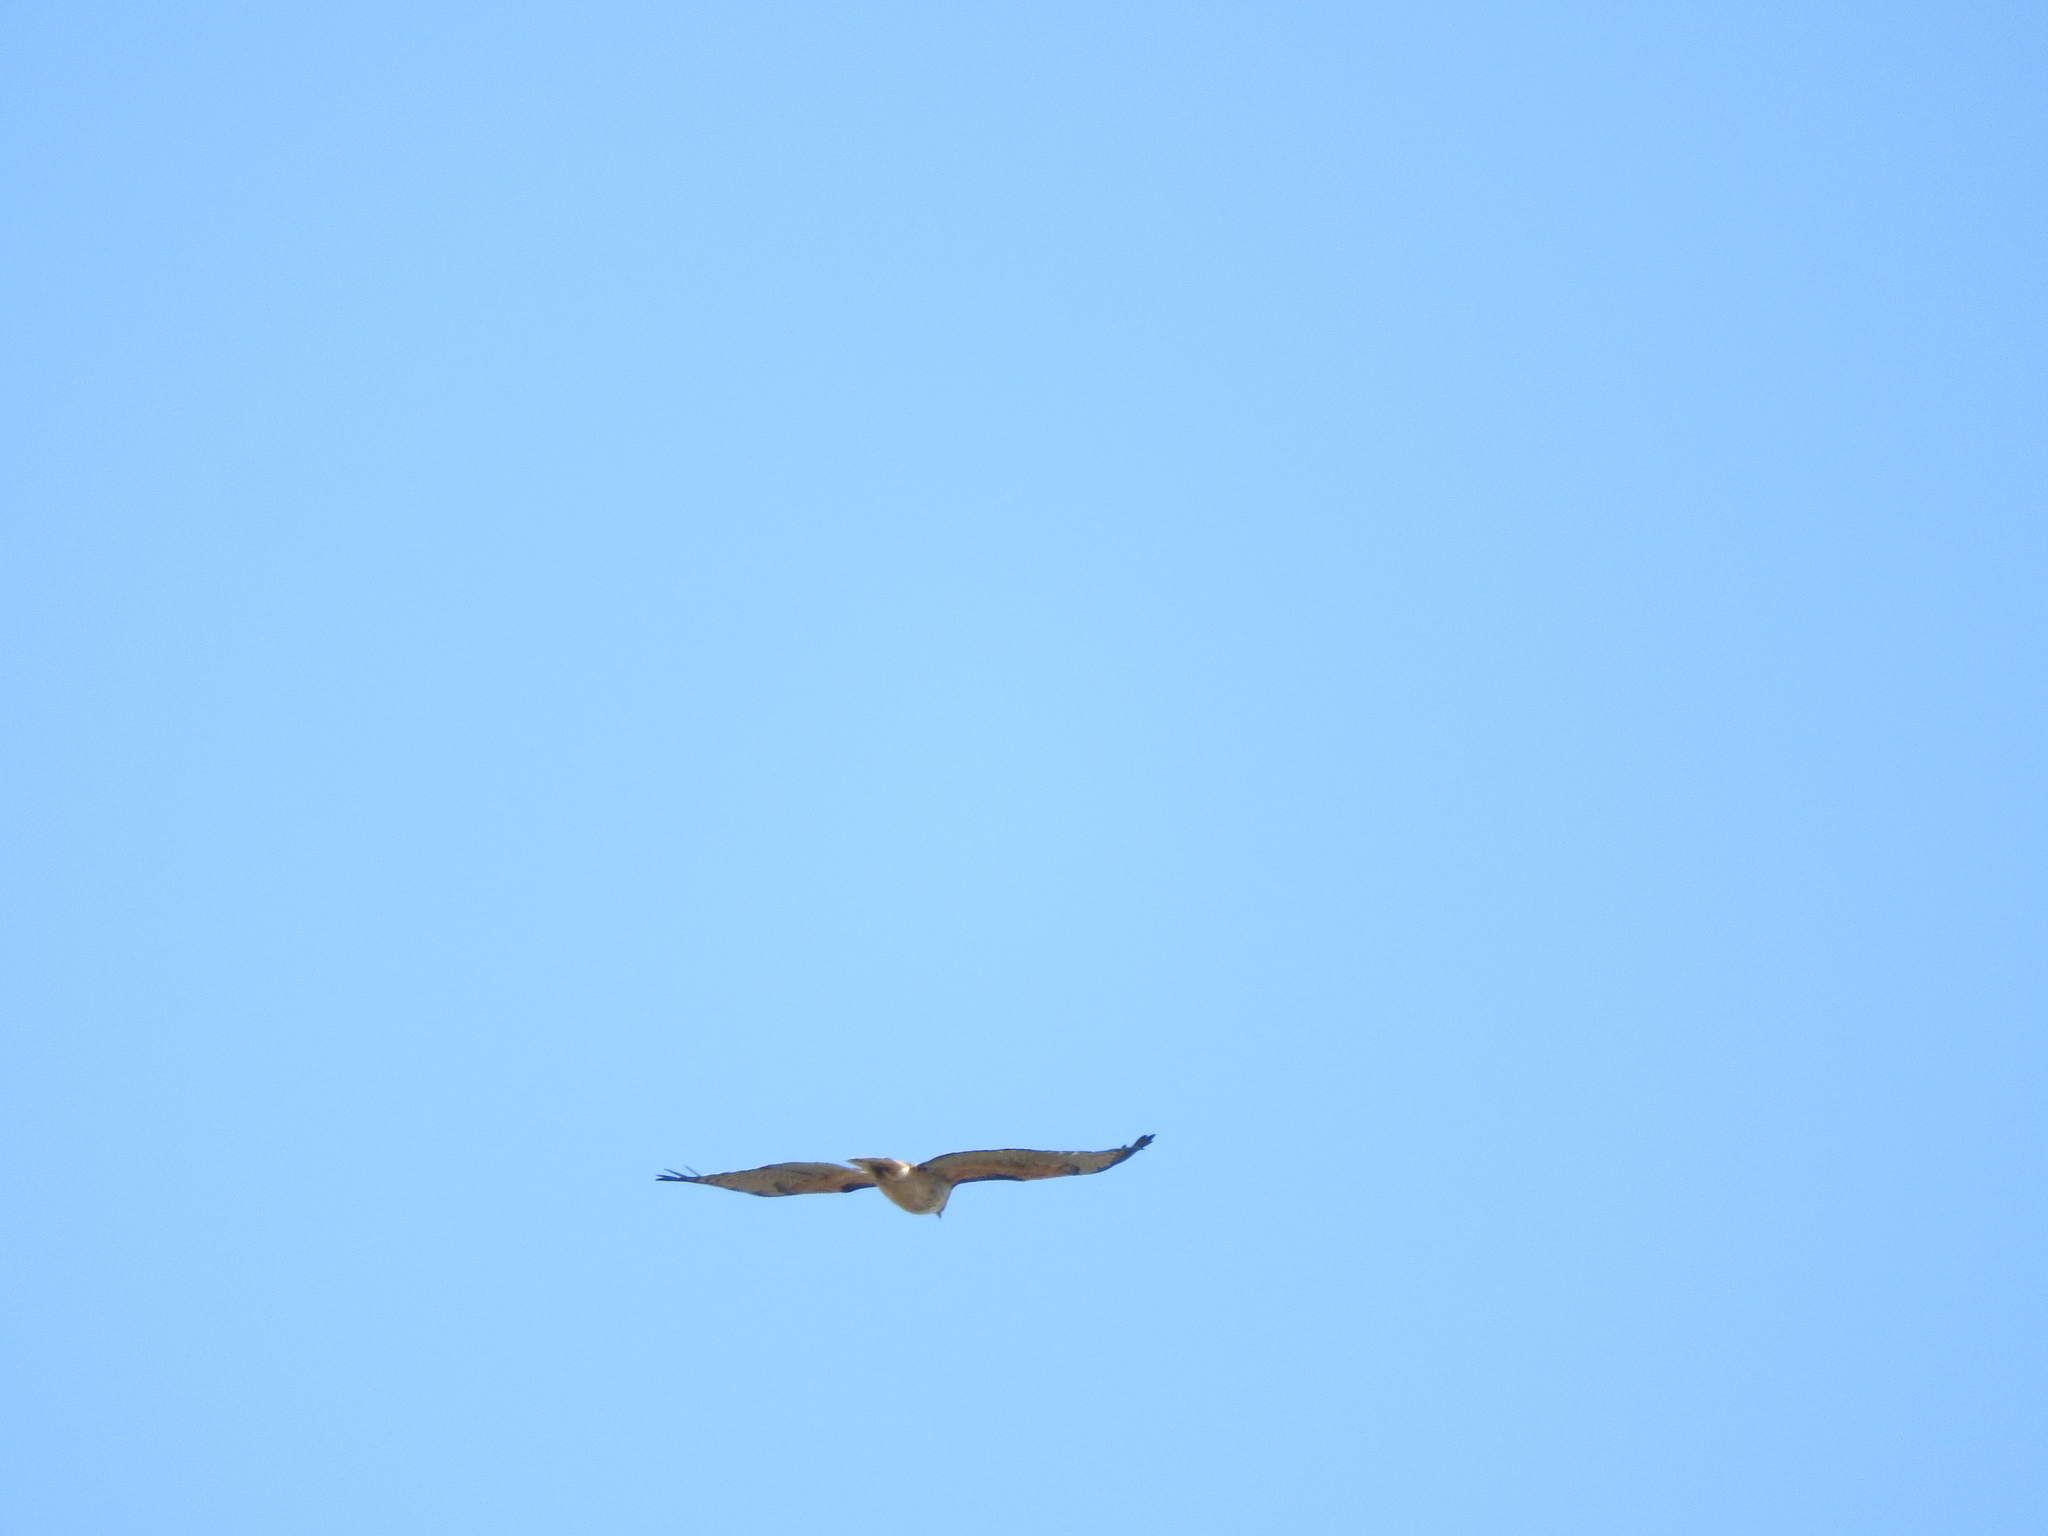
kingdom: Animalia
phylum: Chordata
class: Aves
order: Accipitriformes
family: Accipitridae
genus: Buteo
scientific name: Buteo jamaicensis
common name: Red-tailed hawk
